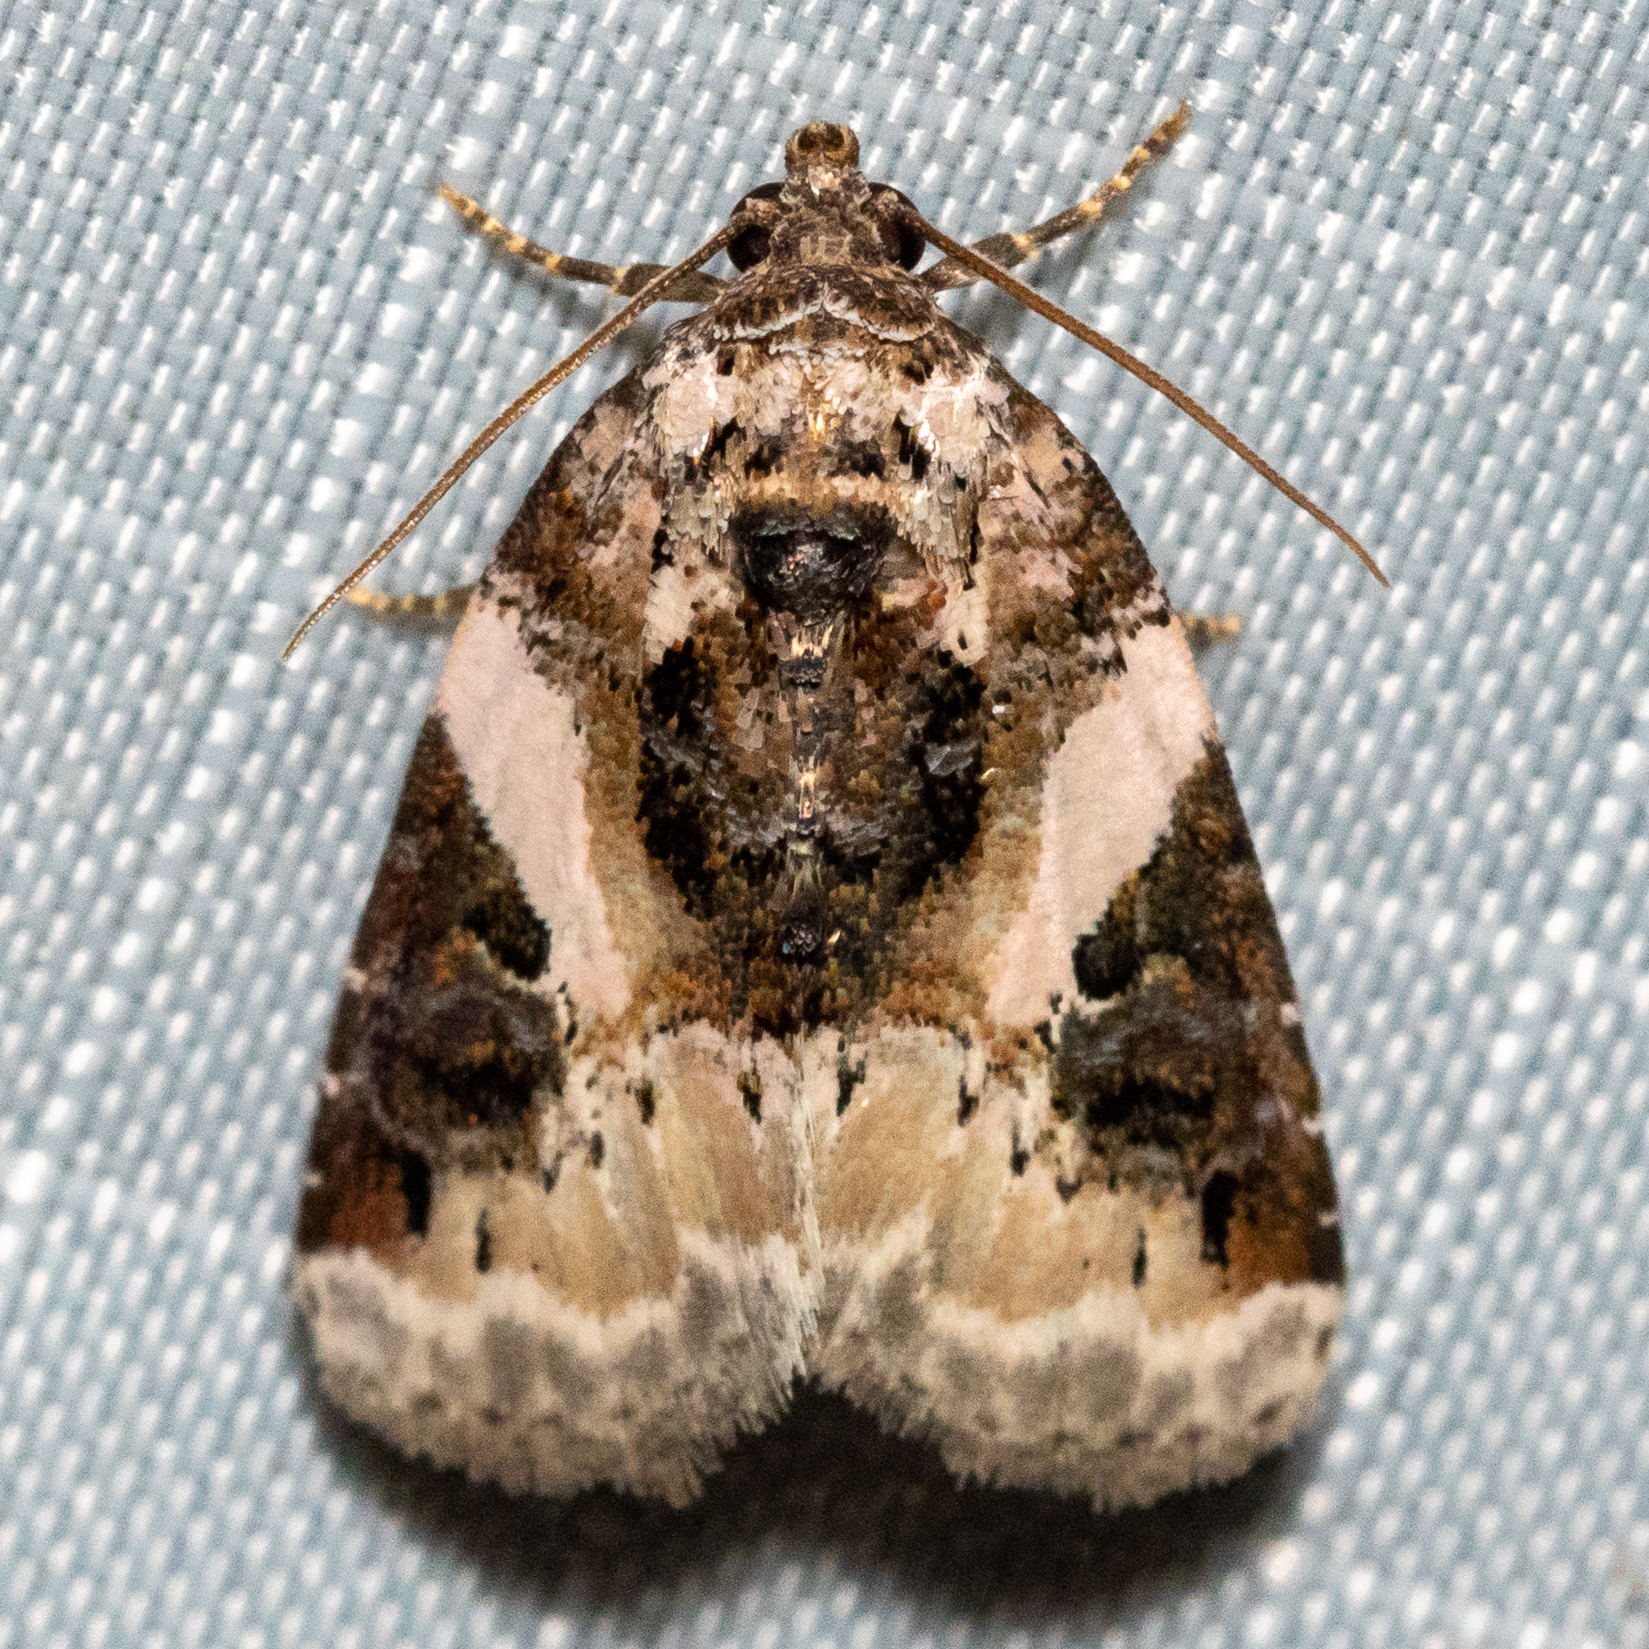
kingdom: Animalia
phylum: Arthropoda
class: Insecta
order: Lepidoptera
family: Noctuidae
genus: Pseudeustrotia
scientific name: Pseudeustrotia carneola
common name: Pink-barred lithacodia moth
